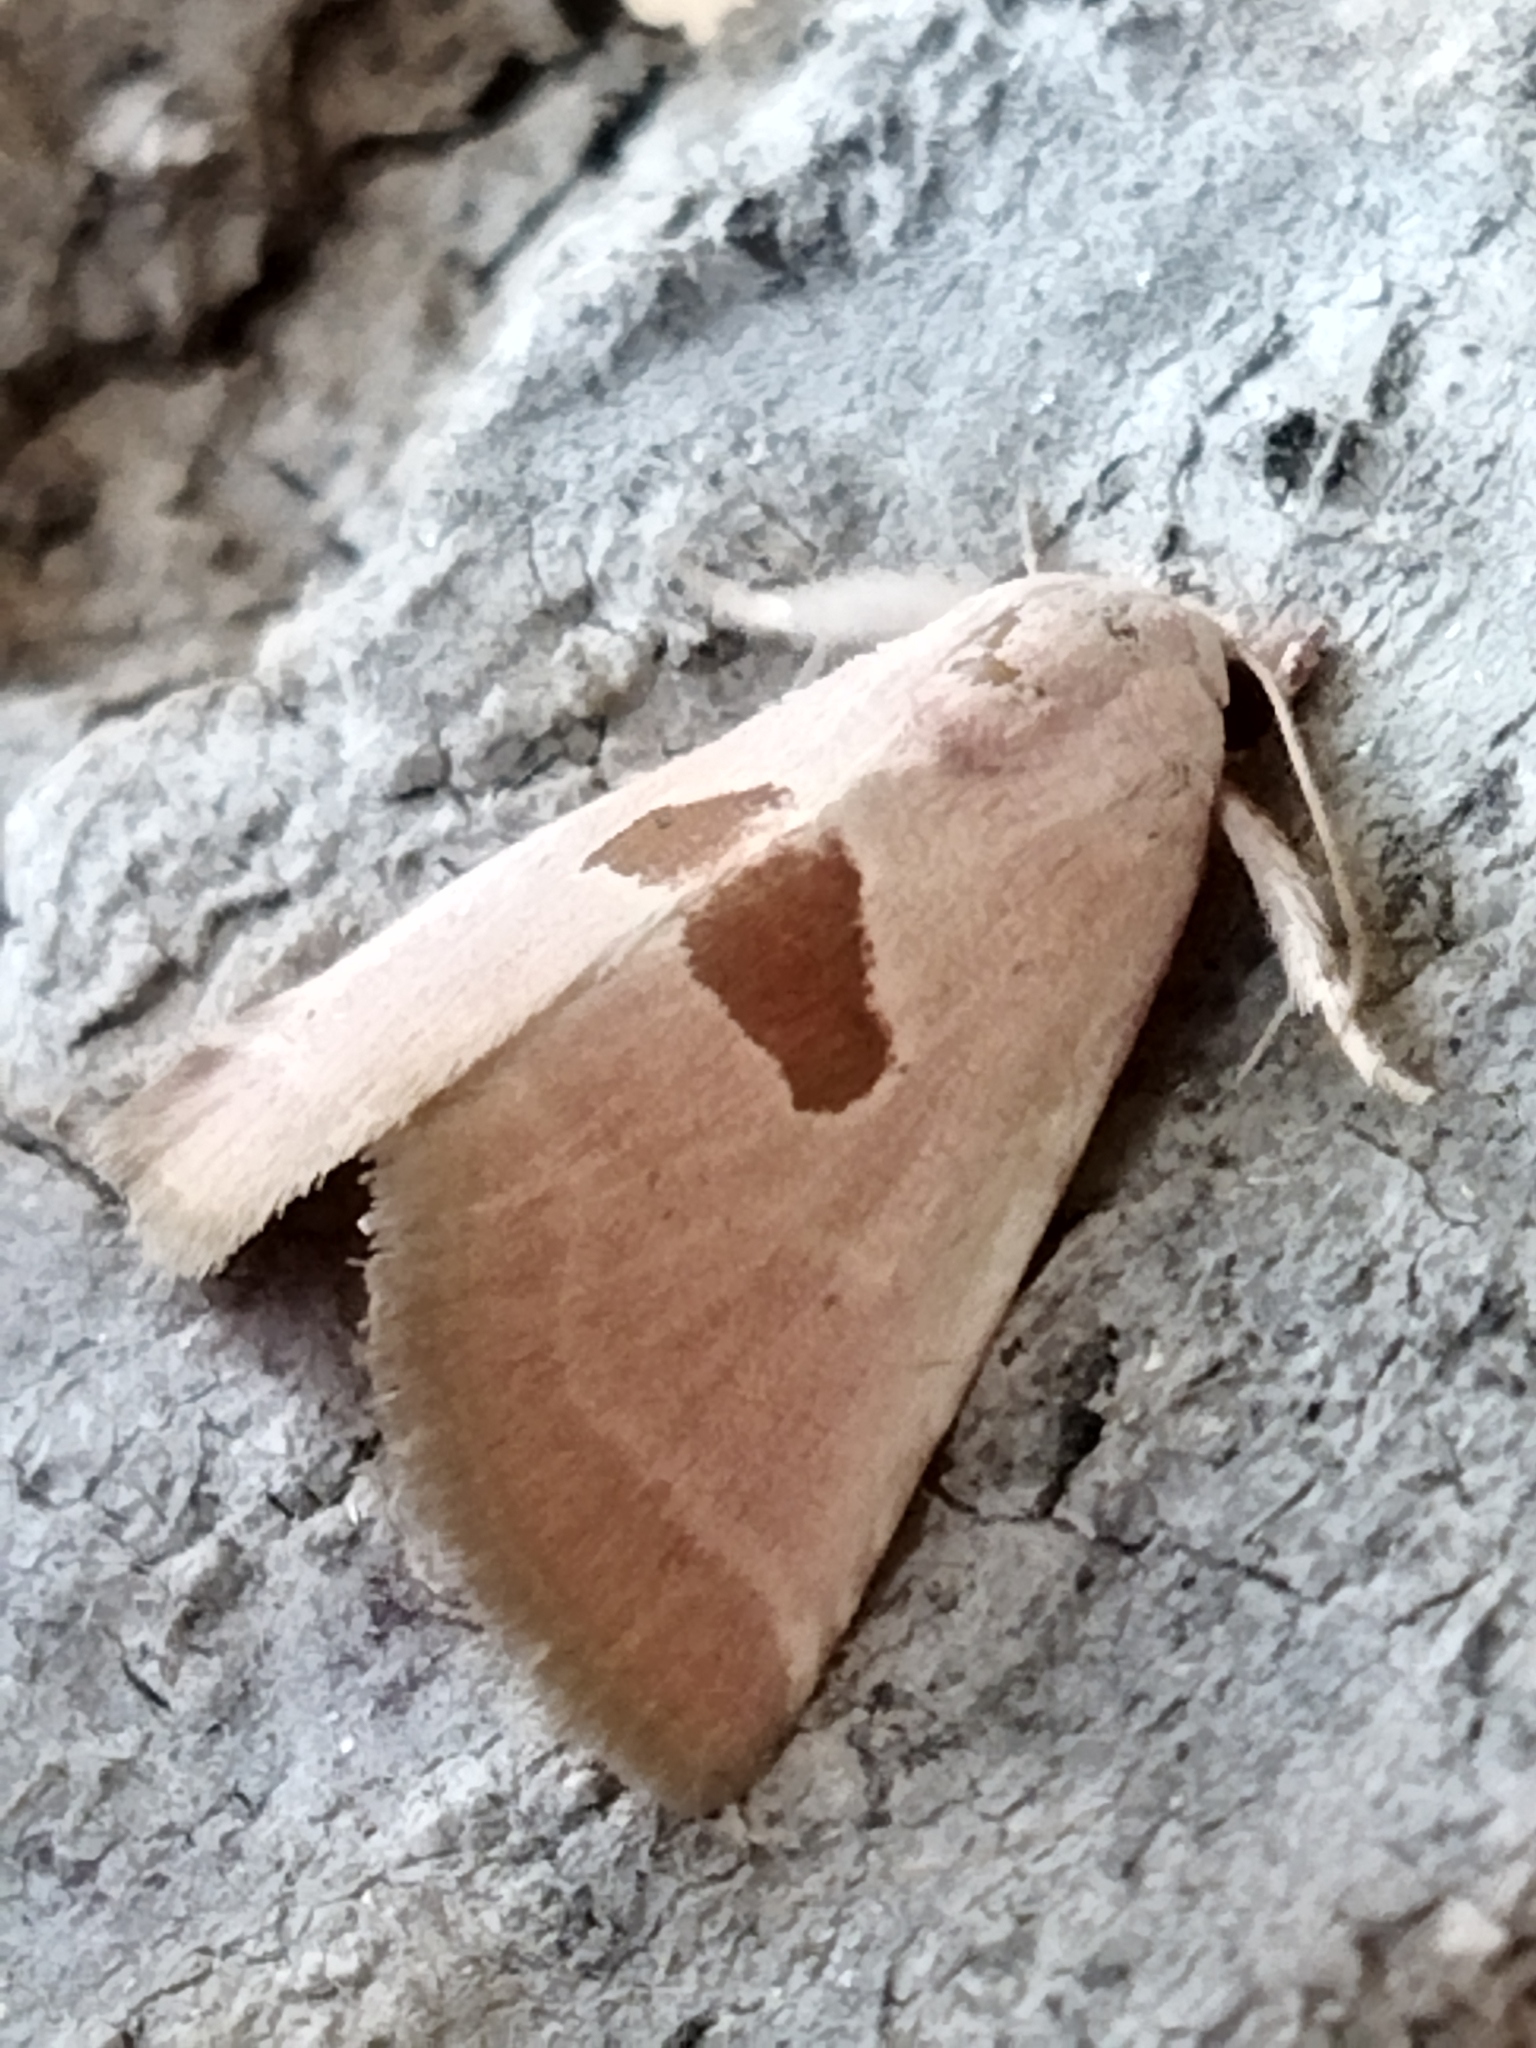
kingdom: Animalia
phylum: Arthropoda
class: Insecta
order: Lepidoptera
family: Noctuidae
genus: Calymma
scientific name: Calymma communimacula
